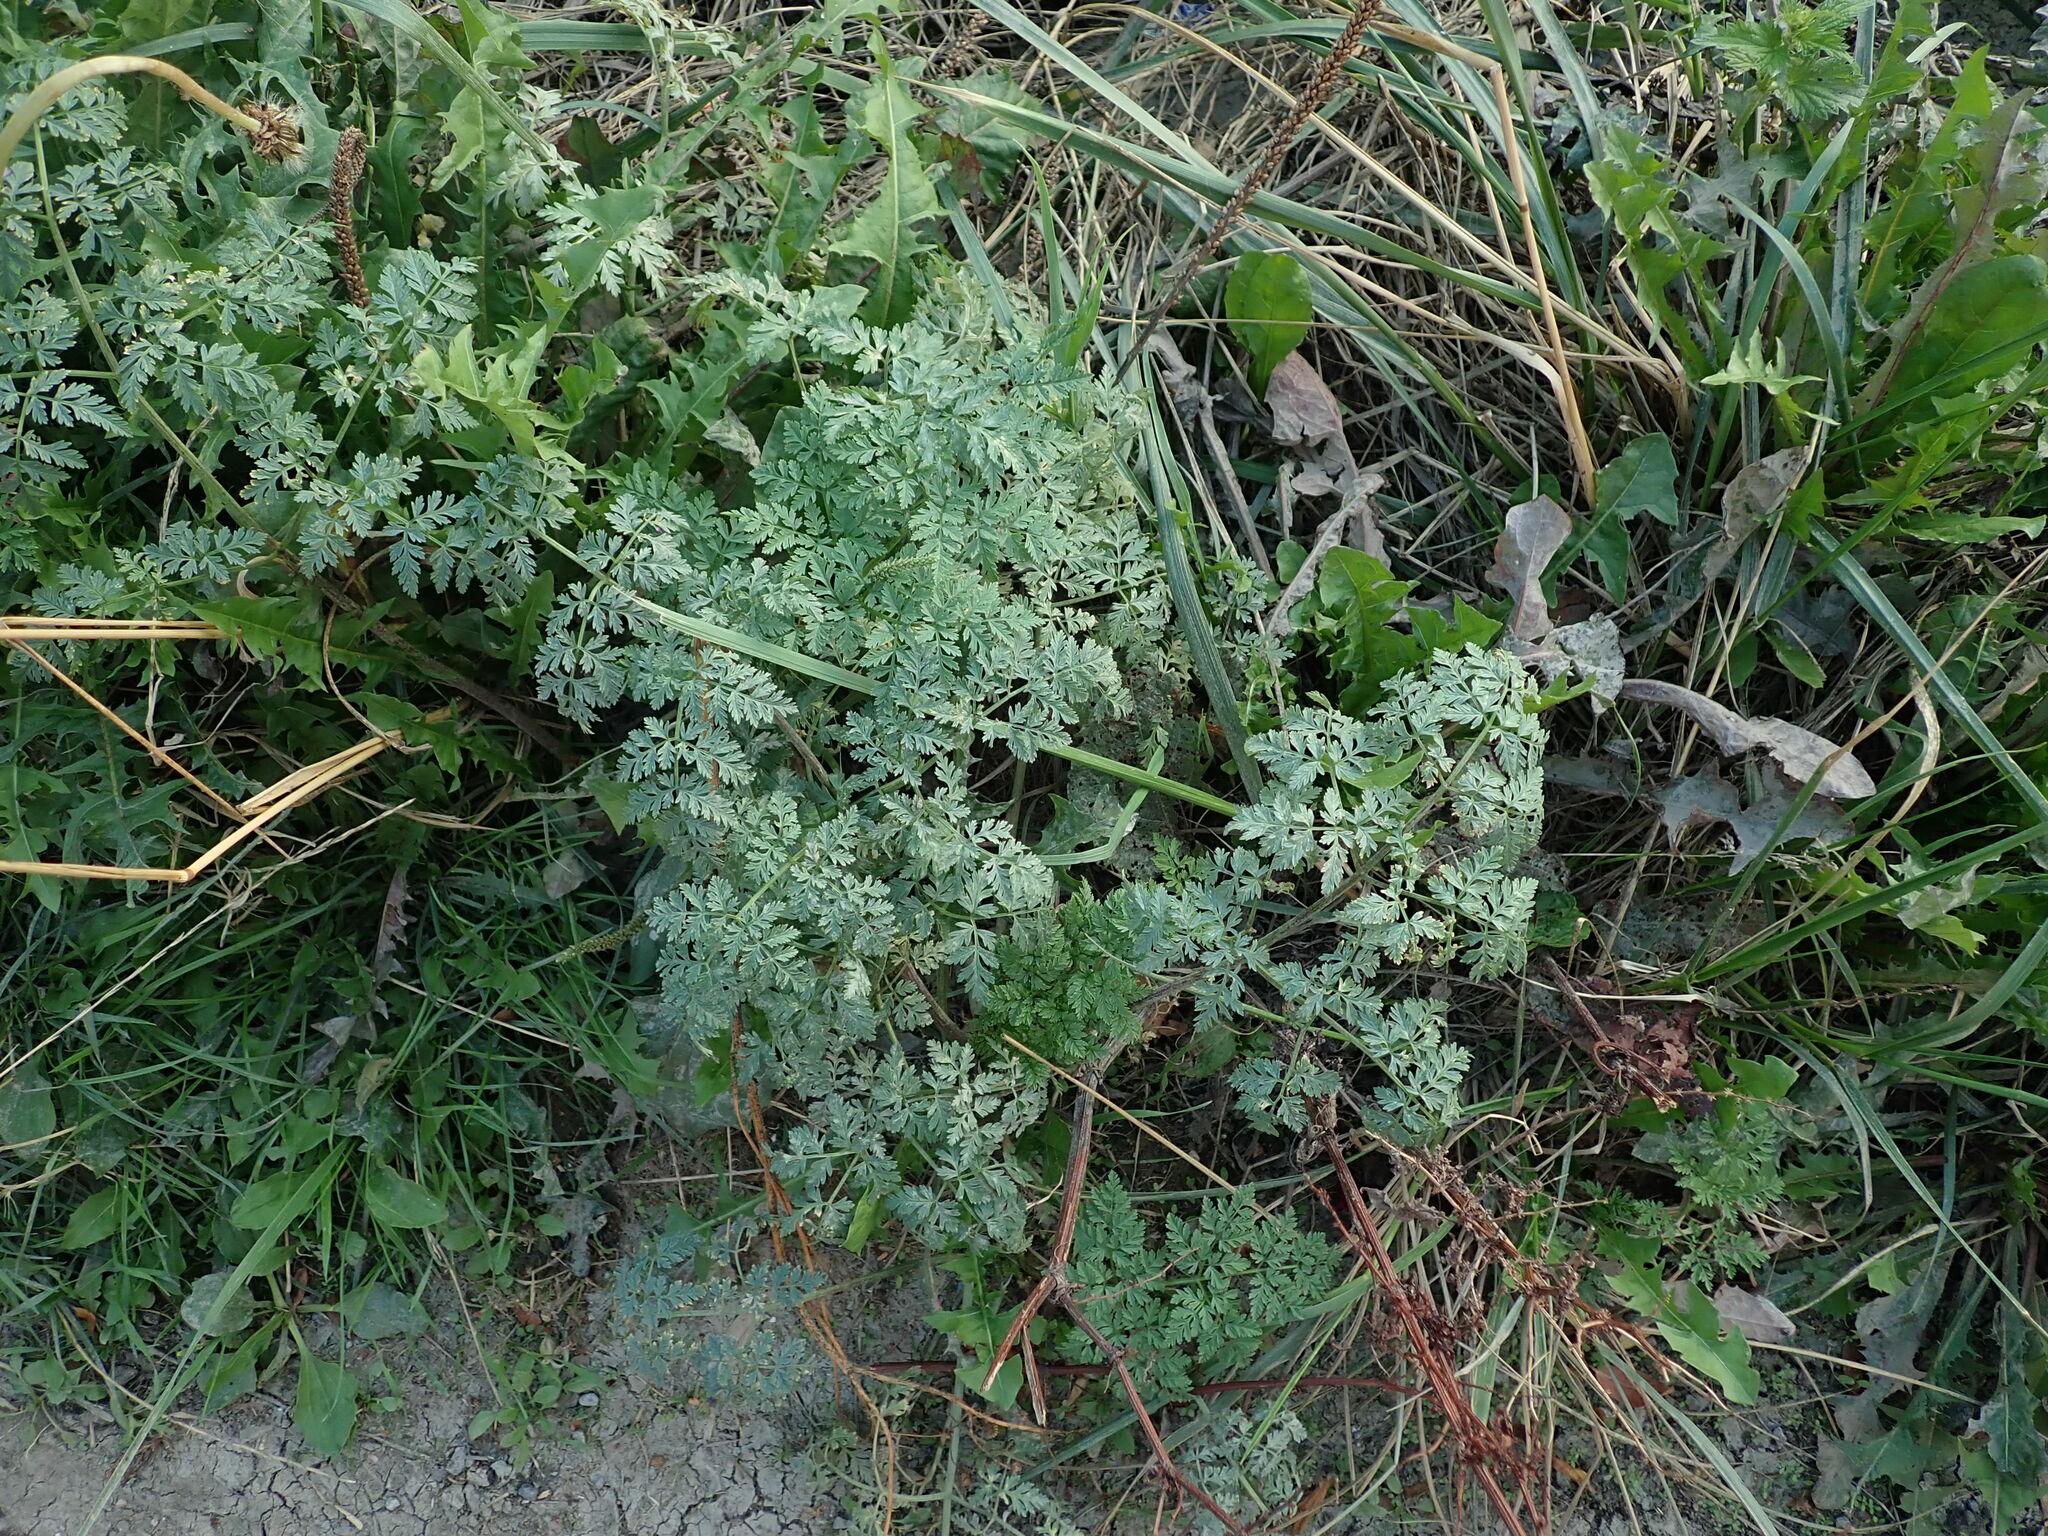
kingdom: Plantae
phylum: Tracheophyta
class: Magnoliopsida
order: Apiales
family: Apiaceae
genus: Conium
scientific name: Conium maculatum
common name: Hemlock
